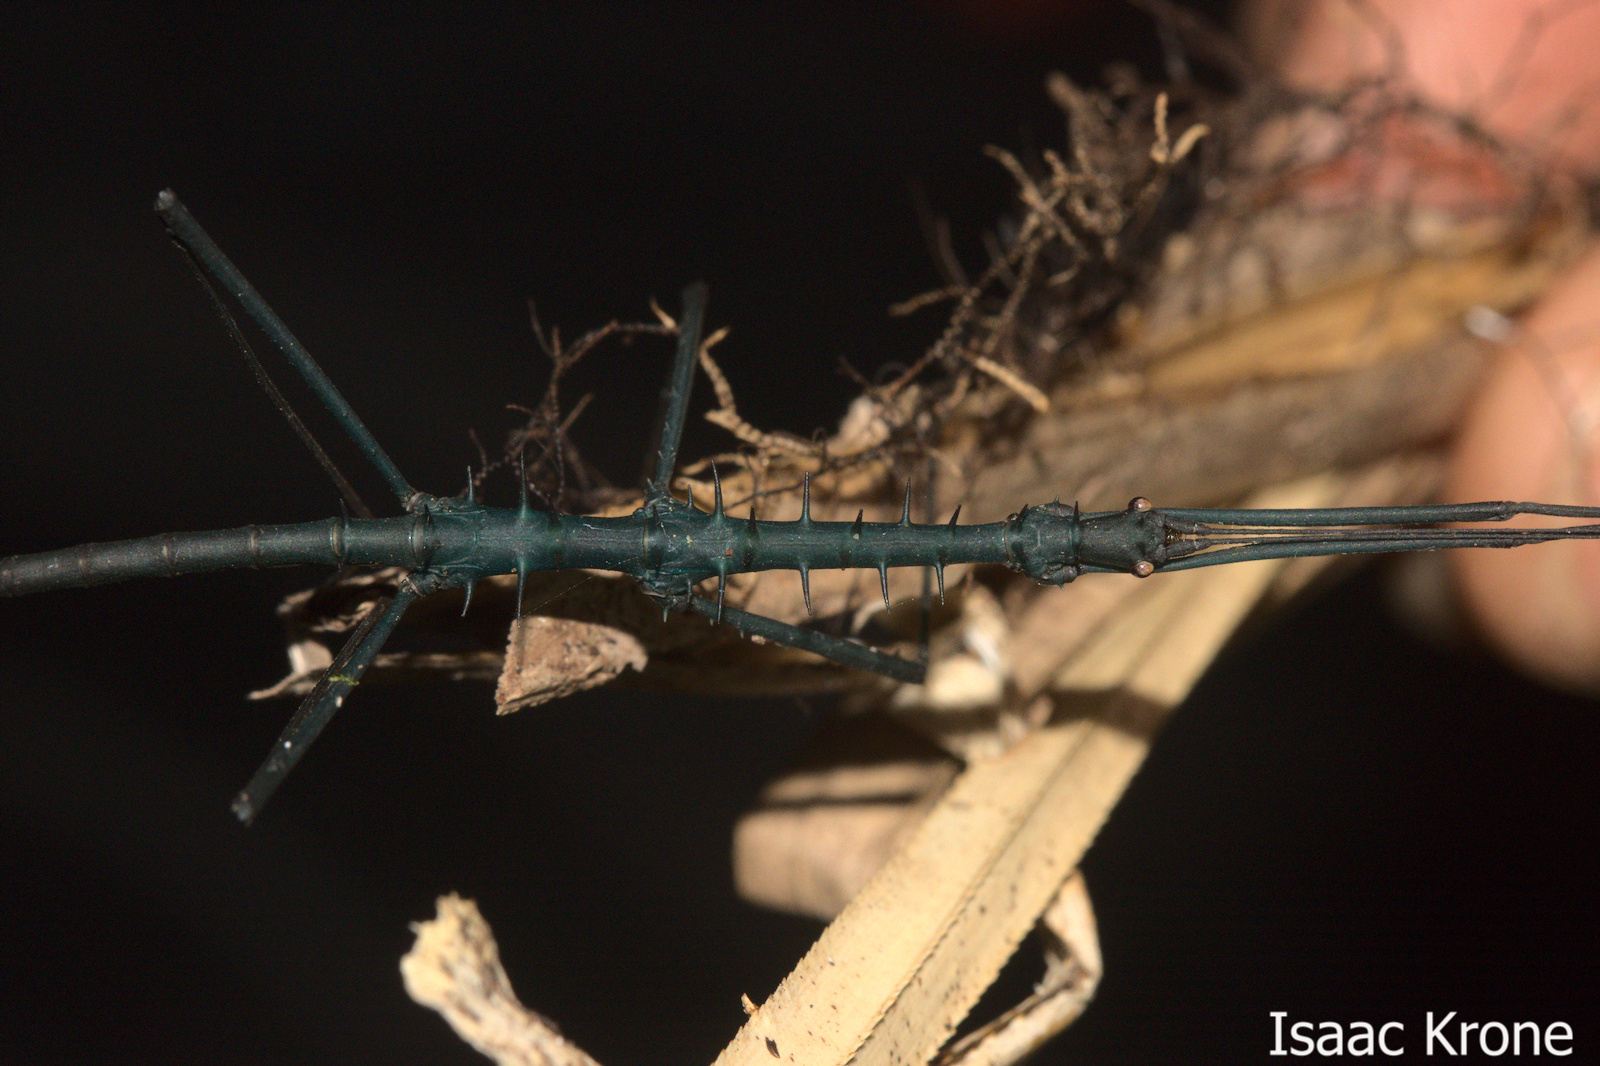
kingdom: Animalia
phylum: Arthropoda
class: Insecta
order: Phasmida
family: Lonchodidae
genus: Acanthomenexenus
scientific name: Acanthomenexenus polyacanthus
